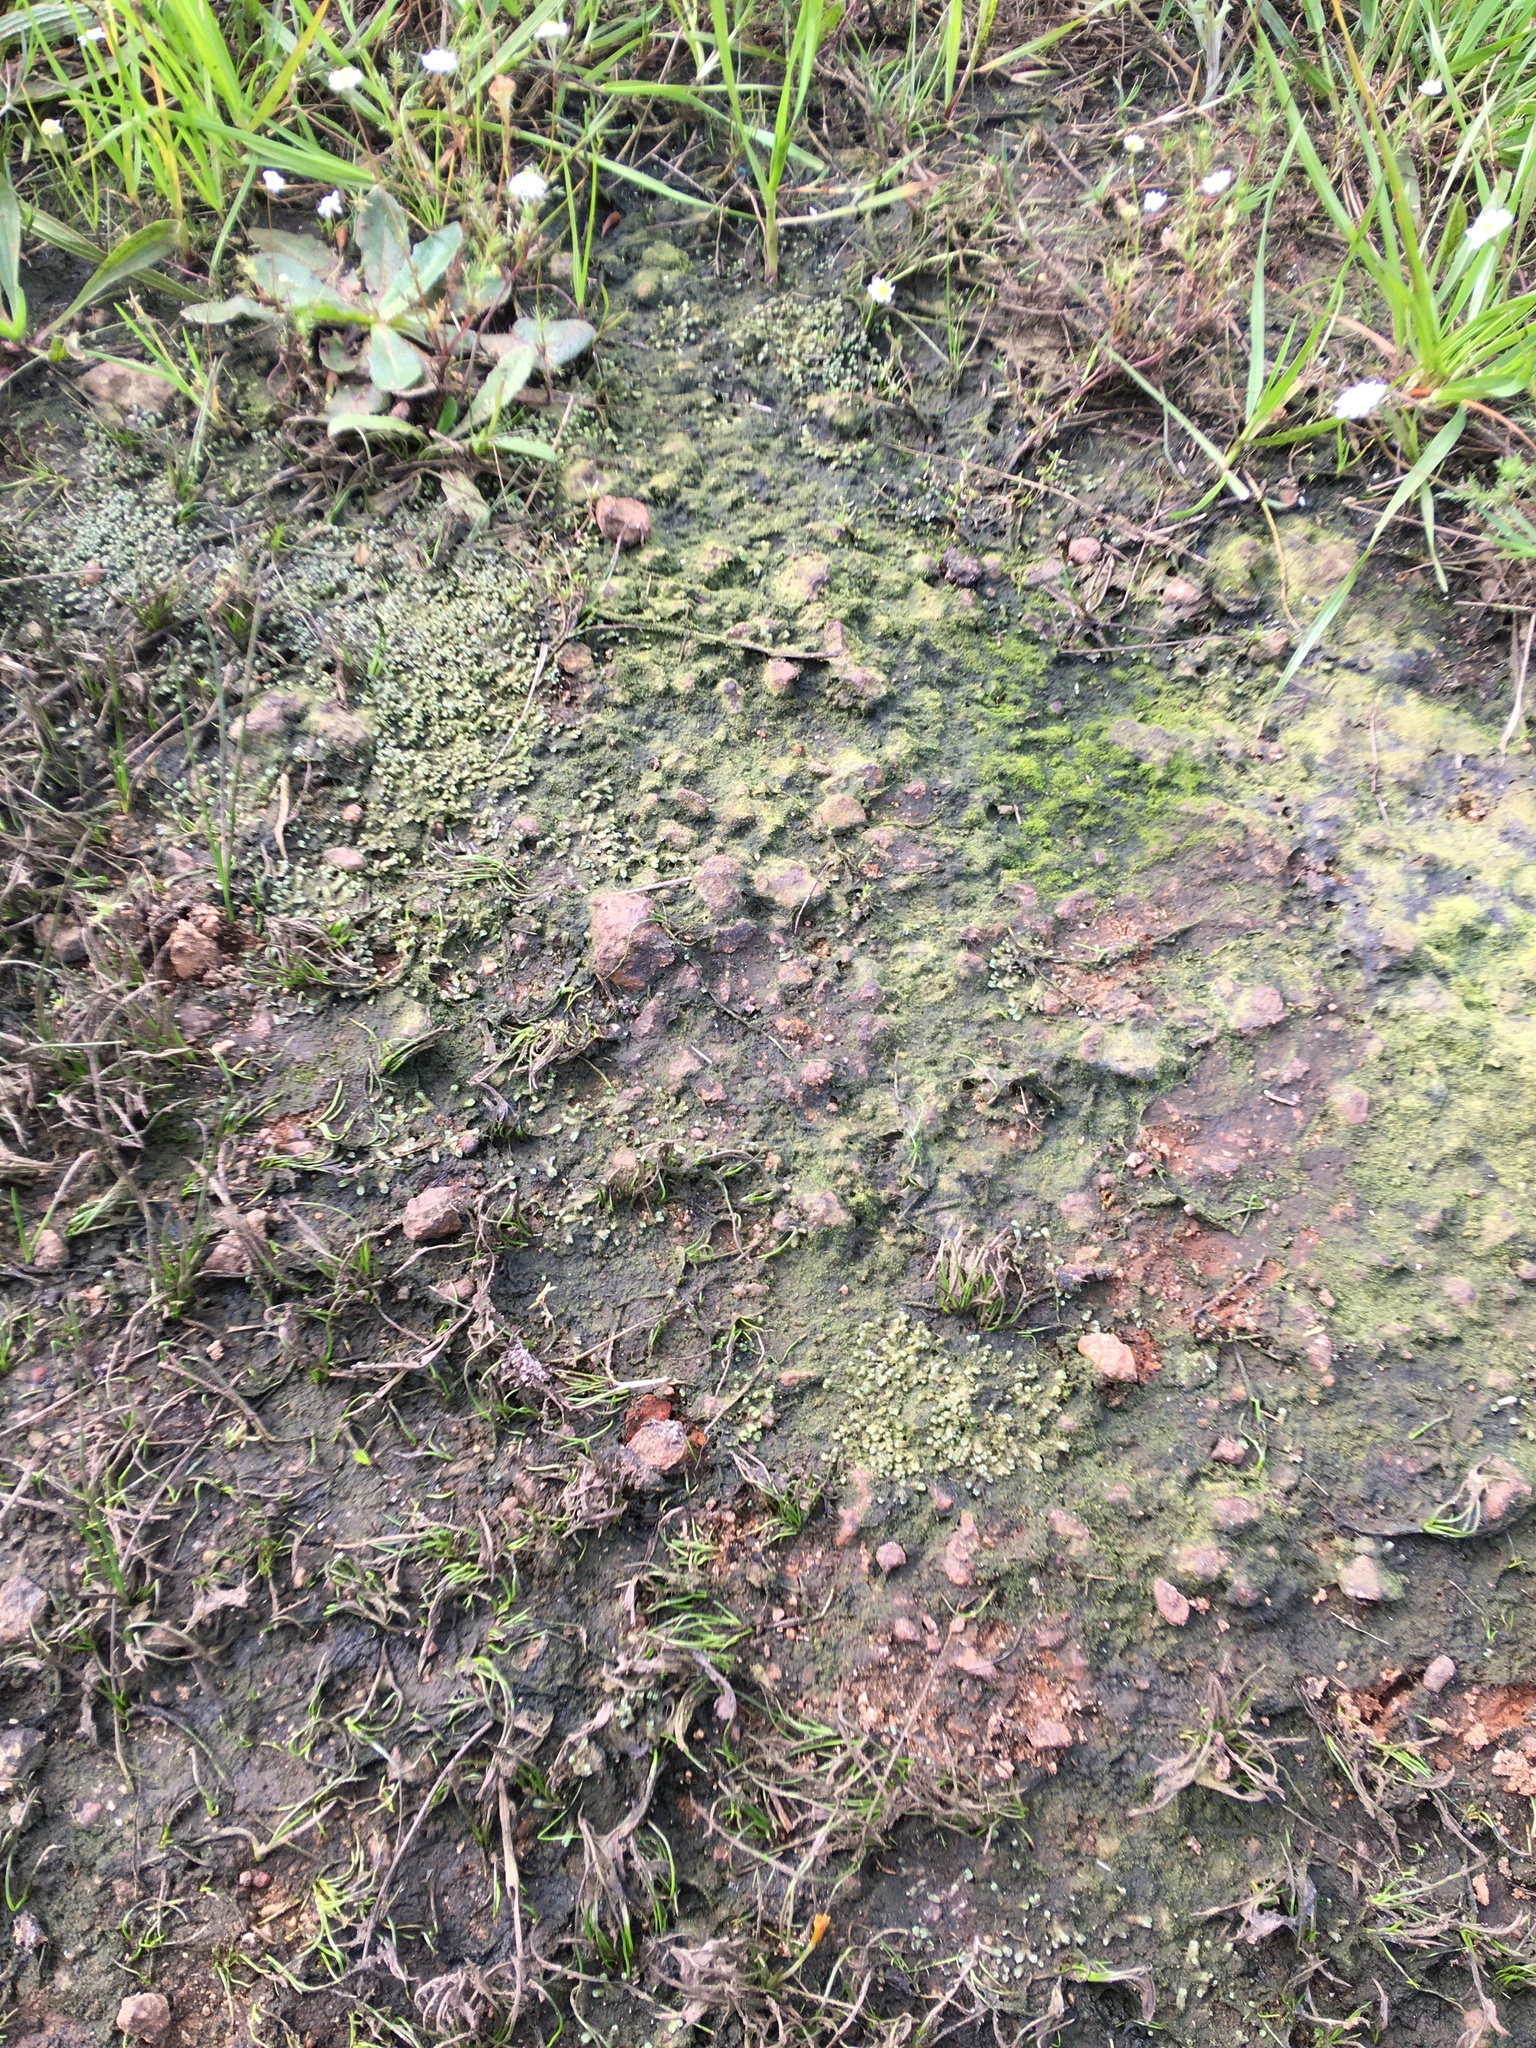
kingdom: Plantae
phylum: Marchantiophyta
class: Marchantiopsida
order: Marchantiales
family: Ricciaceae
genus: Oxymitra
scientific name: Oxymitra cristata
